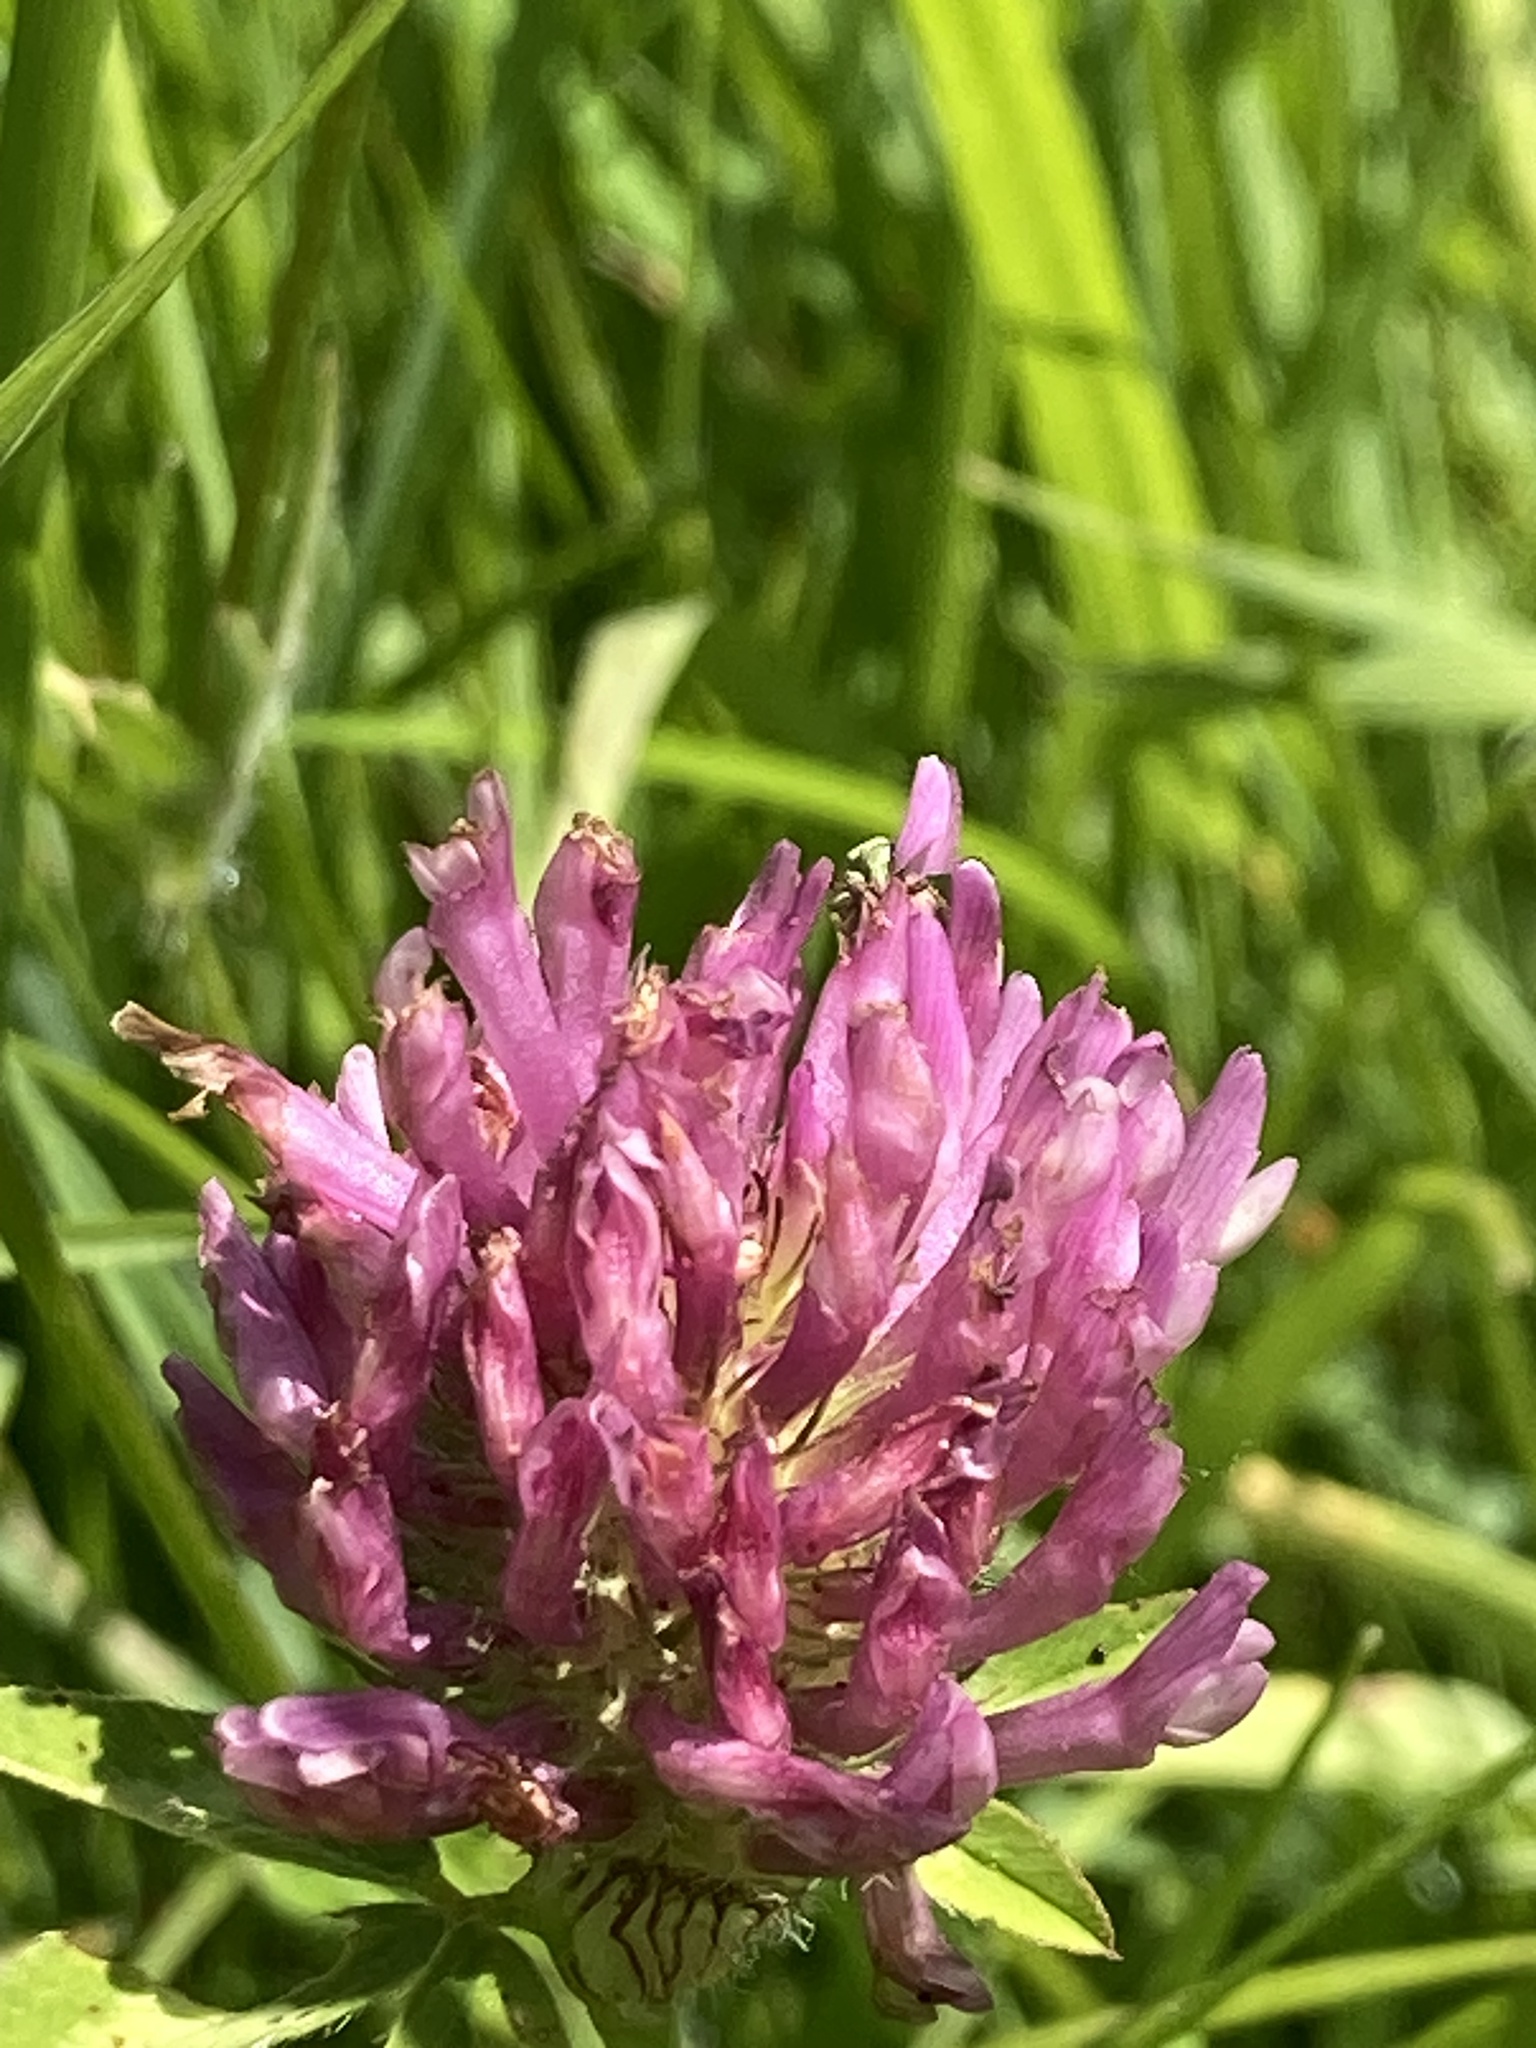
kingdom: Plantae
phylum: Tracheophyta
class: Magnoliopsida
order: Fabales
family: Fabaceae
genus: Trifolium
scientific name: Trifolium pratense
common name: Red clover
